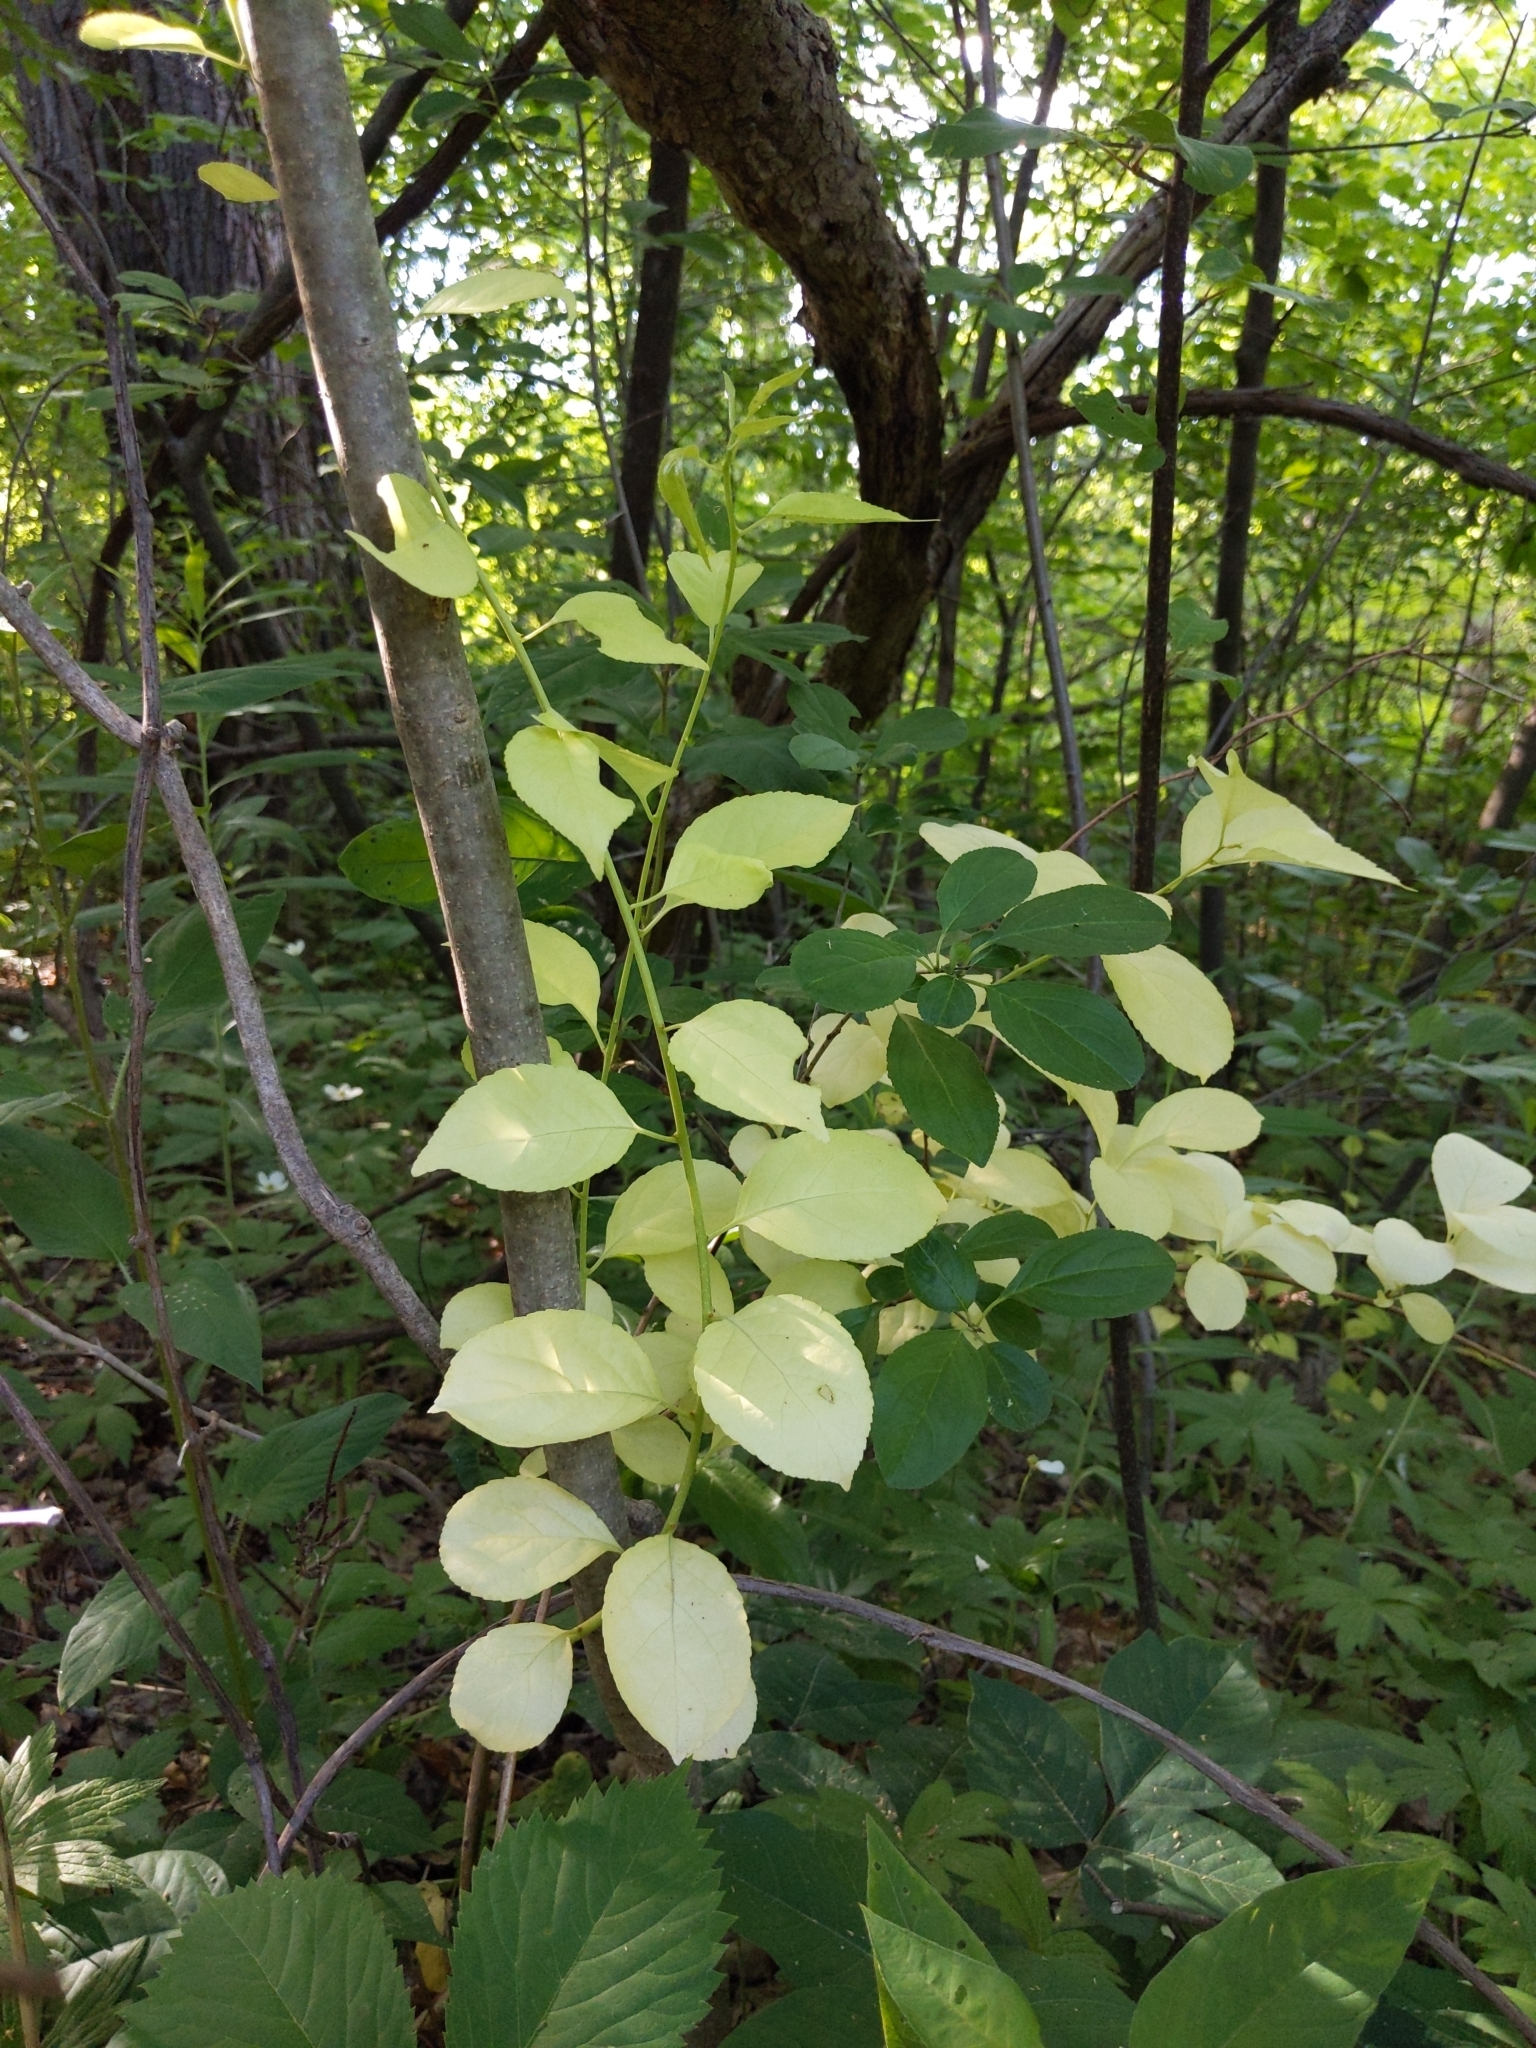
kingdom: Plantae
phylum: Tracheophyta
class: Magnoliopsida
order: Celastrales
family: Celastraceae
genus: Celastrus
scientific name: Celastrus orbiculatus
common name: Oriental bittersweet
